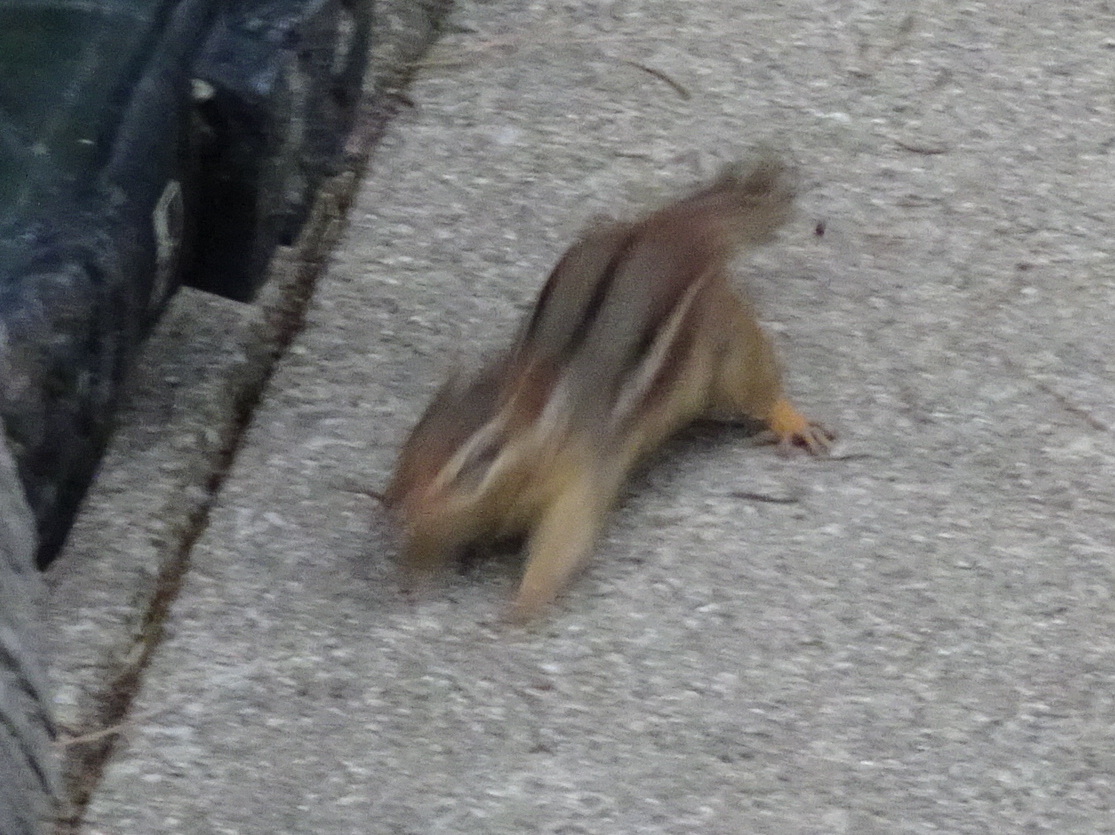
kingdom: Animalia
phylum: Chordata
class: Mammalia
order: Rodentia
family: Sciuridae
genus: Tamias
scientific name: Tamias striatus
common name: Eastern chipmunk
